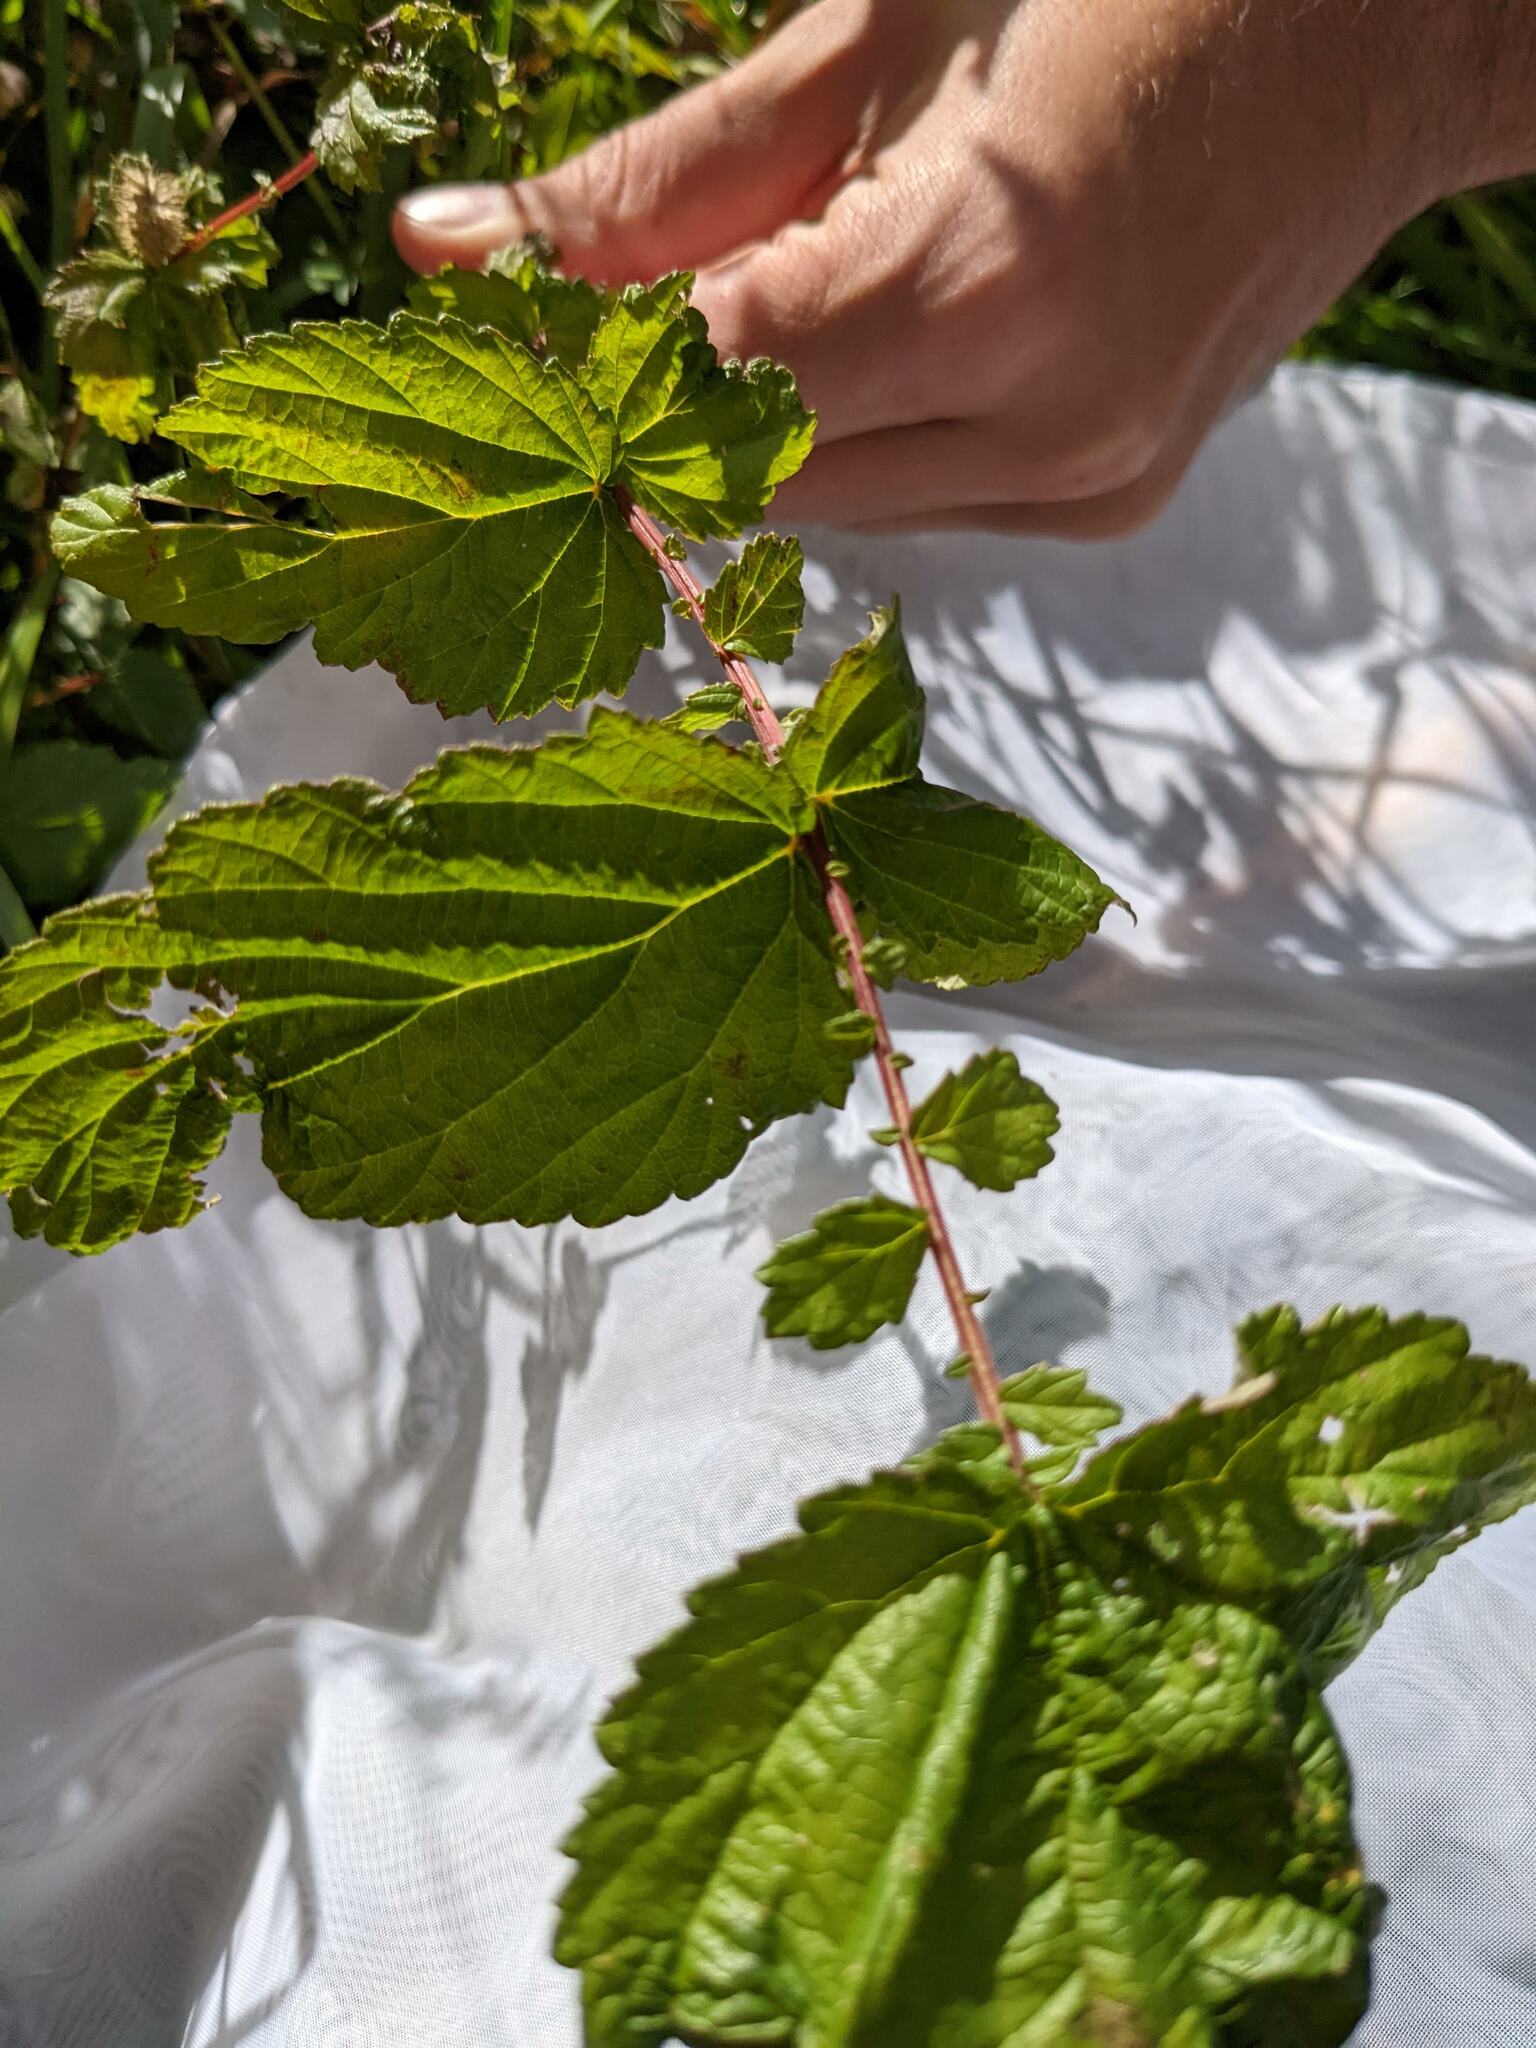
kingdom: Plantae
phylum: Tracheophyta
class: Magnoliopsida
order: Rosales
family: Rosaceae
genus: Filipendula
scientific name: Filipendula ulmaria
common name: Meadowsweet
